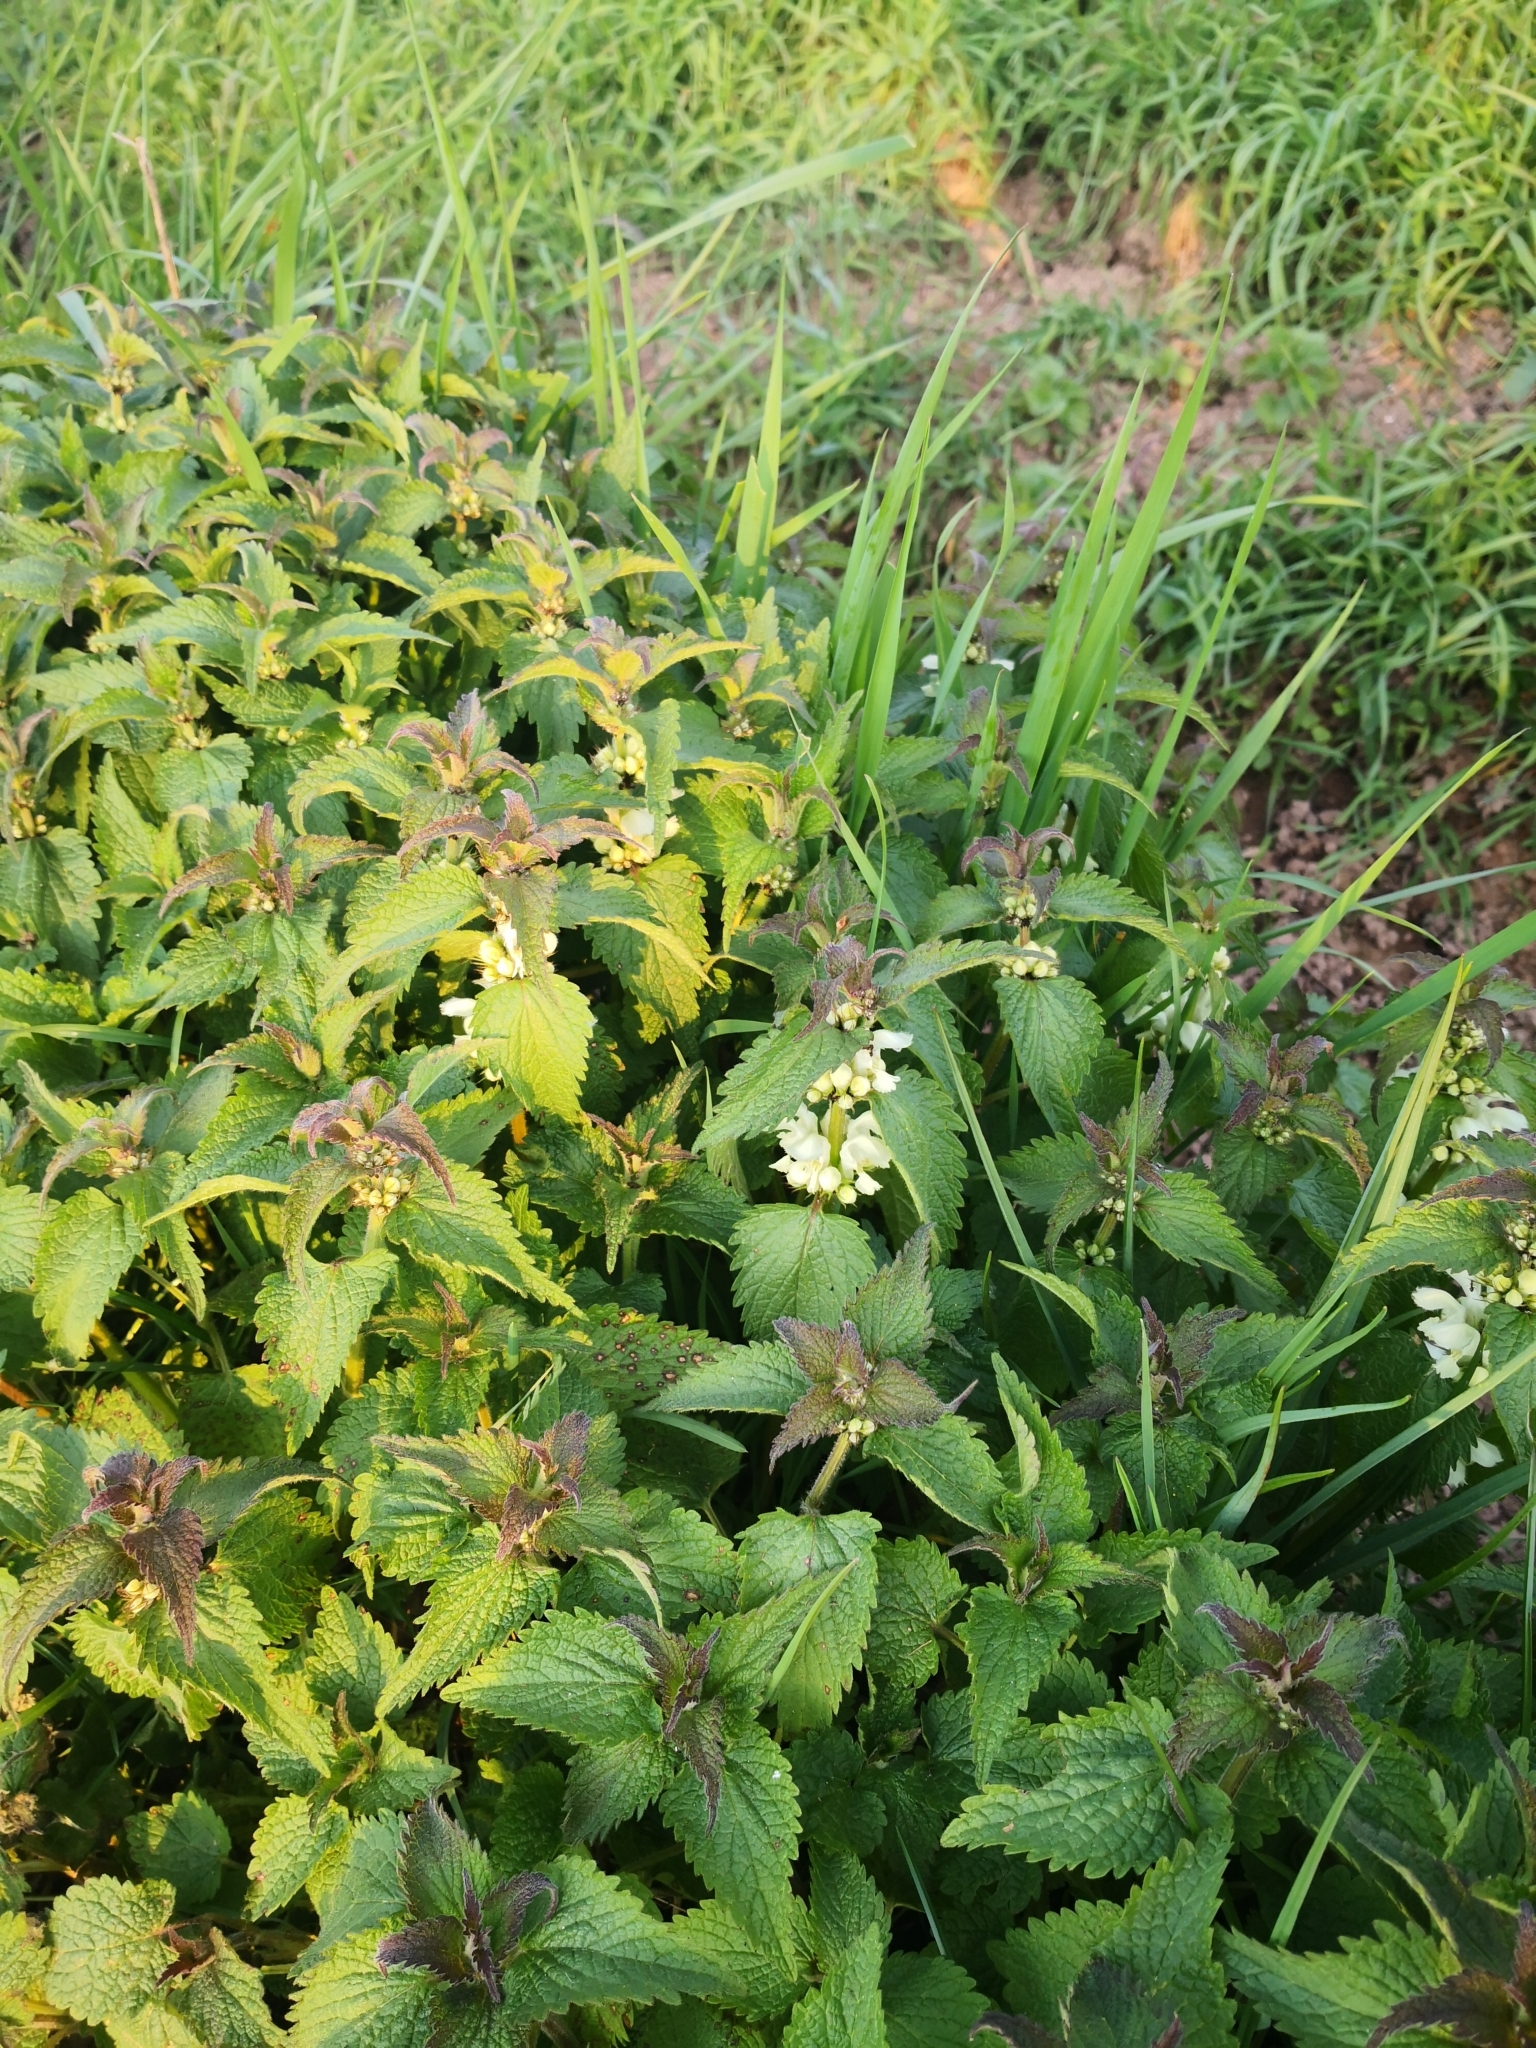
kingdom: Plantae
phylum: Tracheophyta
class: Magnoliopsida
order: Lamiales
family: Lamiaceae
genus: Lamium
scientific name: Lamium album
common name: White dead-nettle
